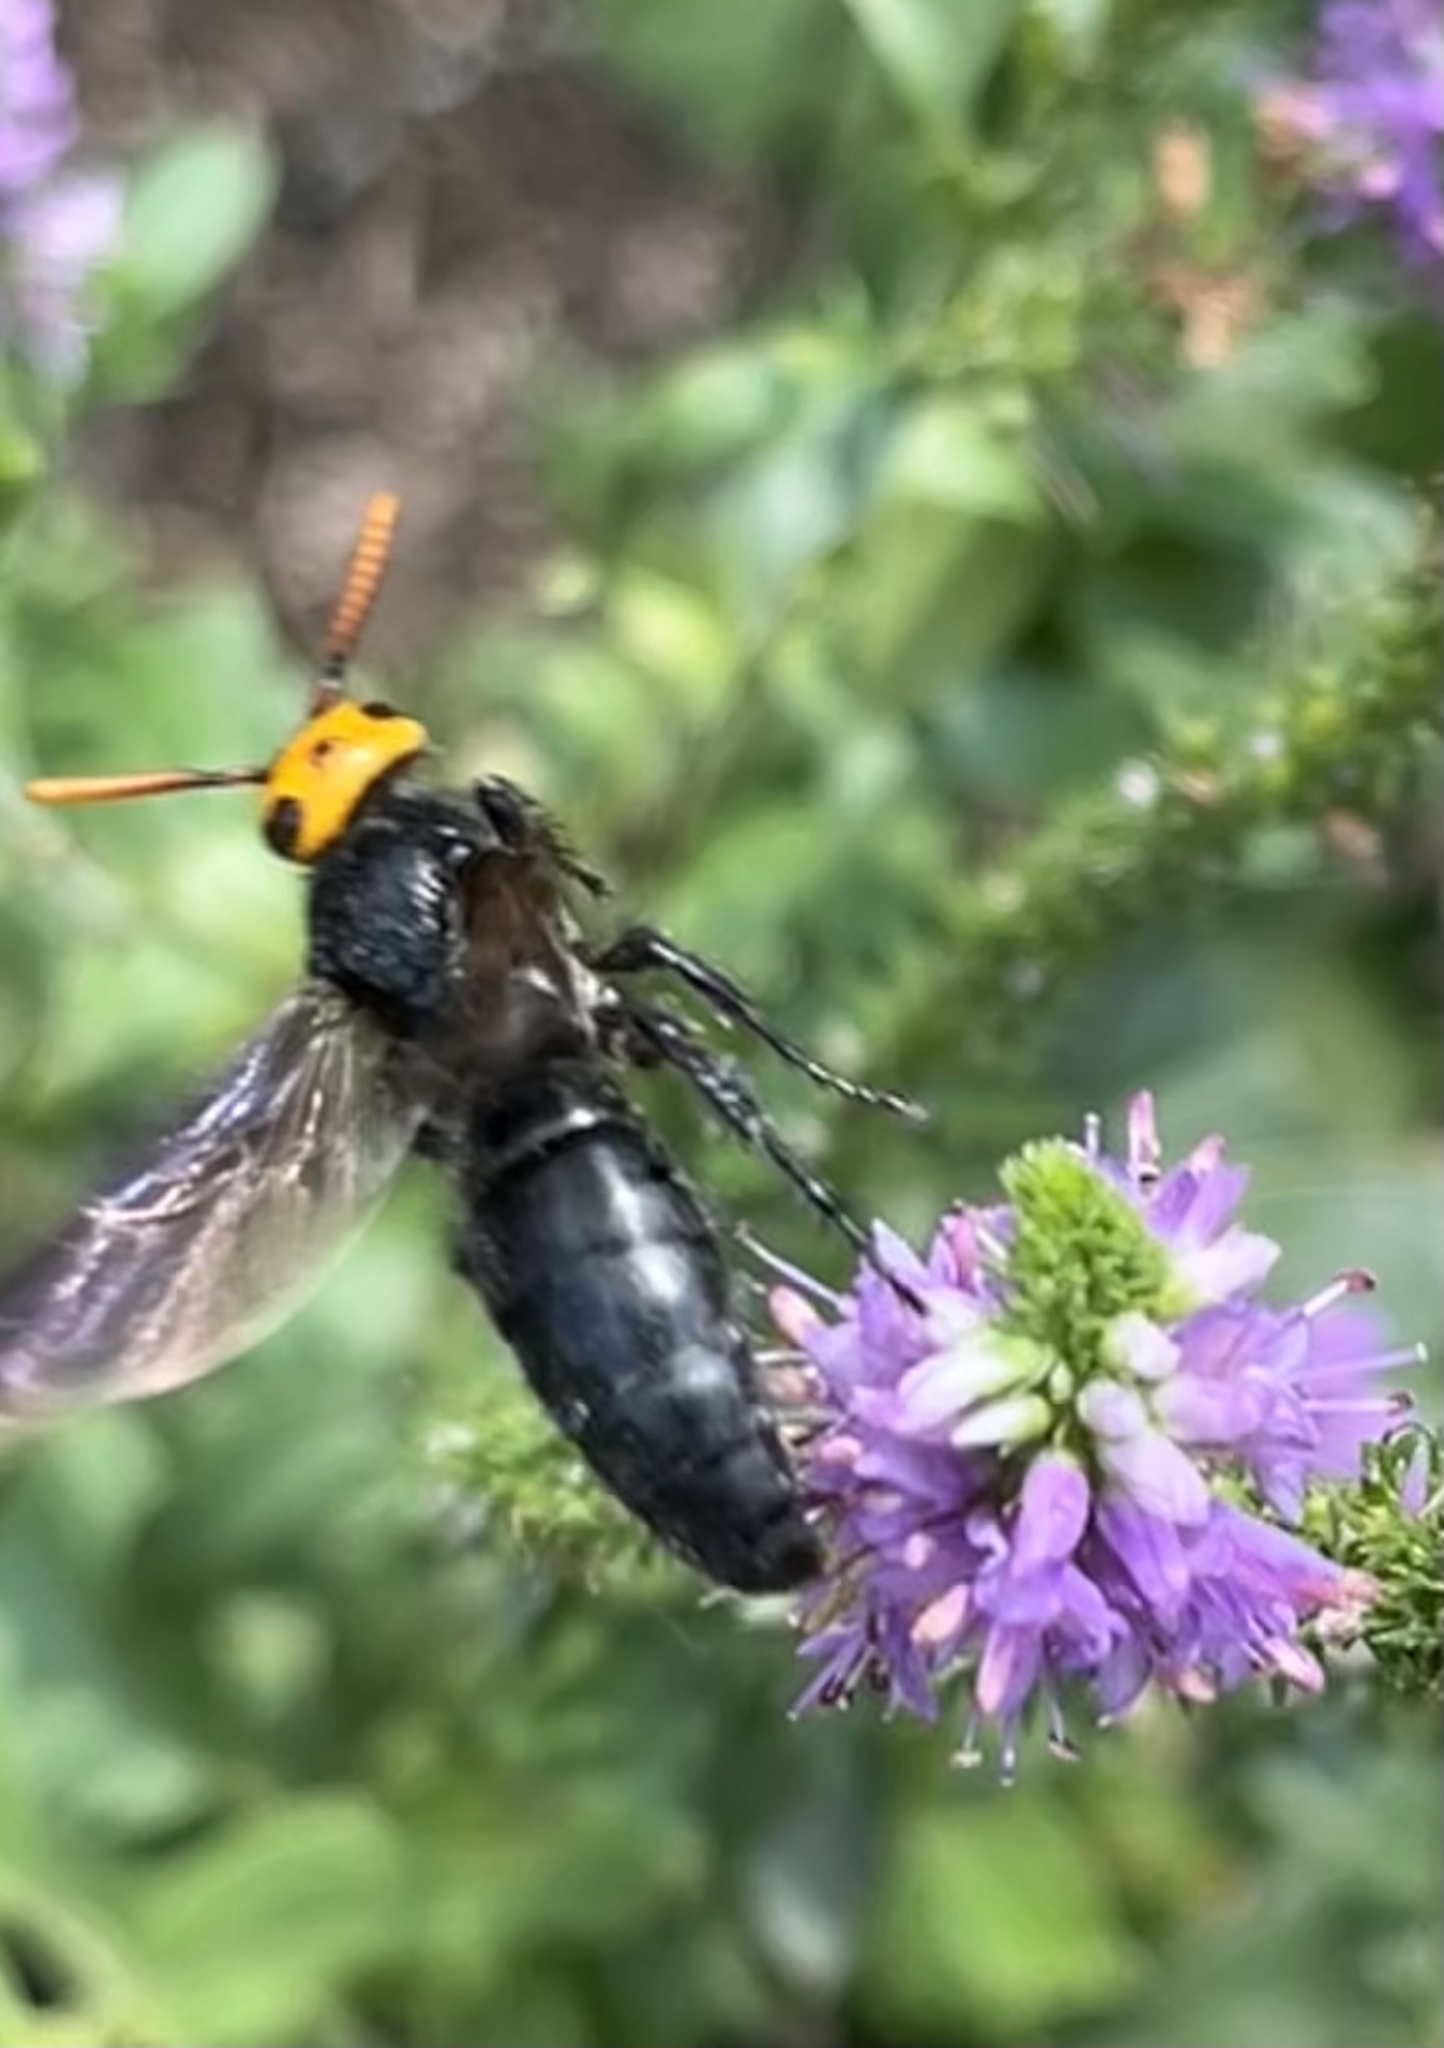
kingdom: Animalia
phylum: Arthropoda
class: Insecta
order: Hymenoptera
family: Scoliidae
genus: Scolia
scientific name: Scolia superciliaris
